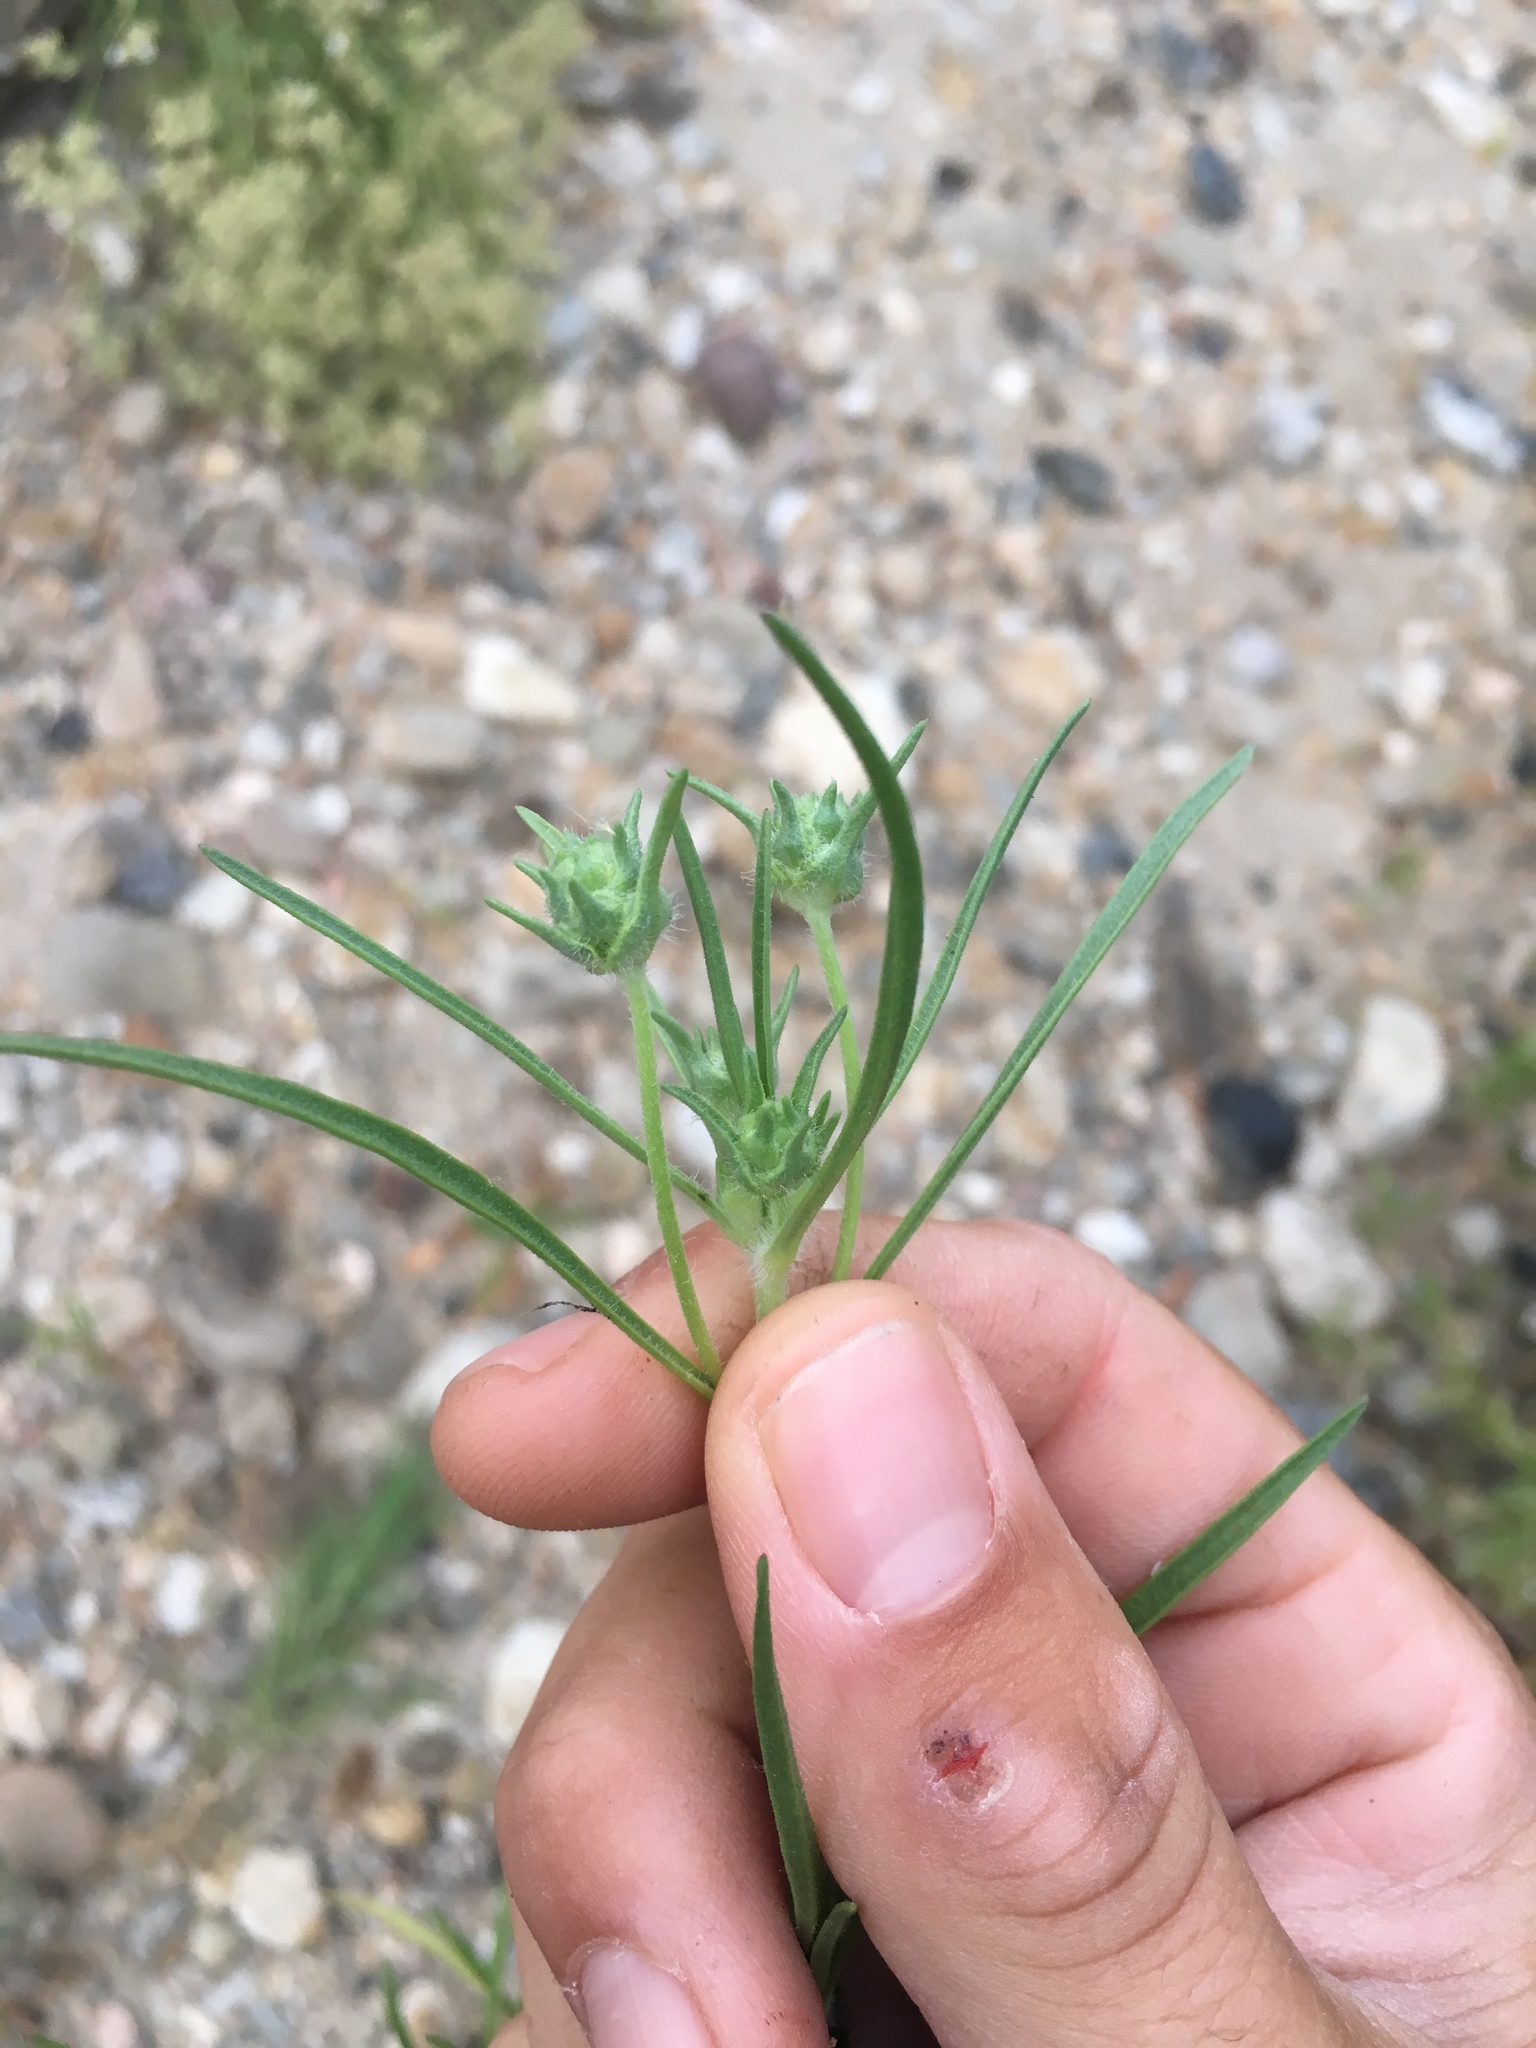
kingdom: Plantae
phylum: Tracheophyta
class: Magnoliopsida
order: Lamiales
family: Plantaginaceae
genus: Plantago
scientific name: Plantago arenaria
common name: Branched plantain
